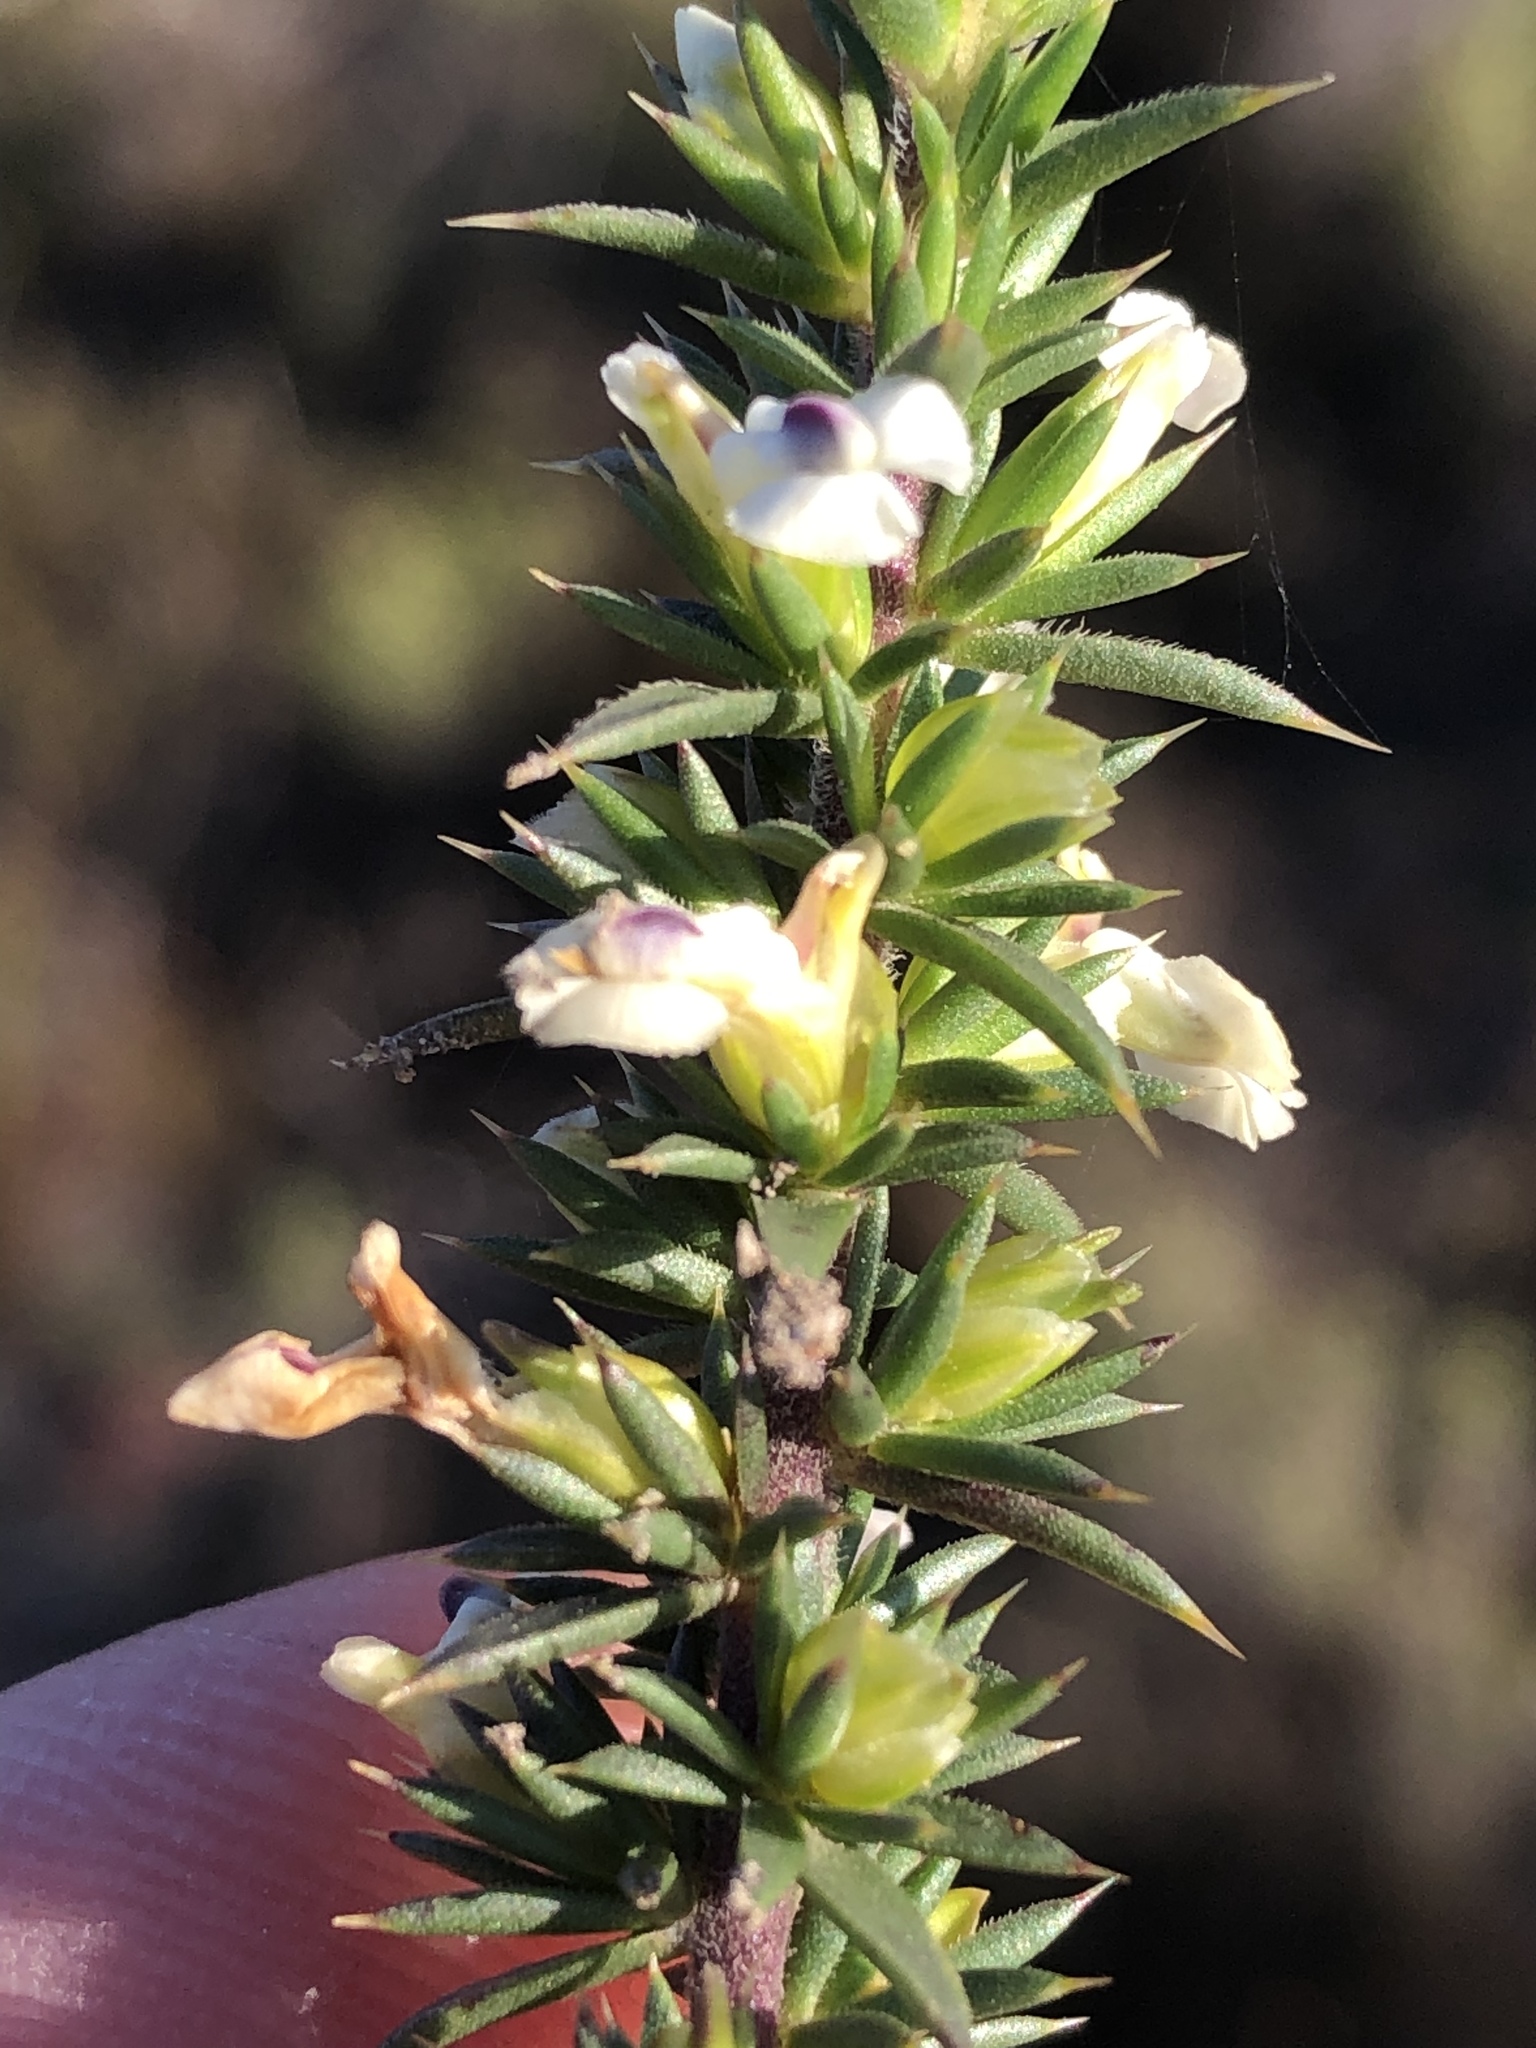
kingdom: Plantae
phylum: Tracheophyta
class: Magnoliopsida
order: Fabales
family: Polygalaceae
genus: Muraltia
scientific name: Muraltia ericifolia
